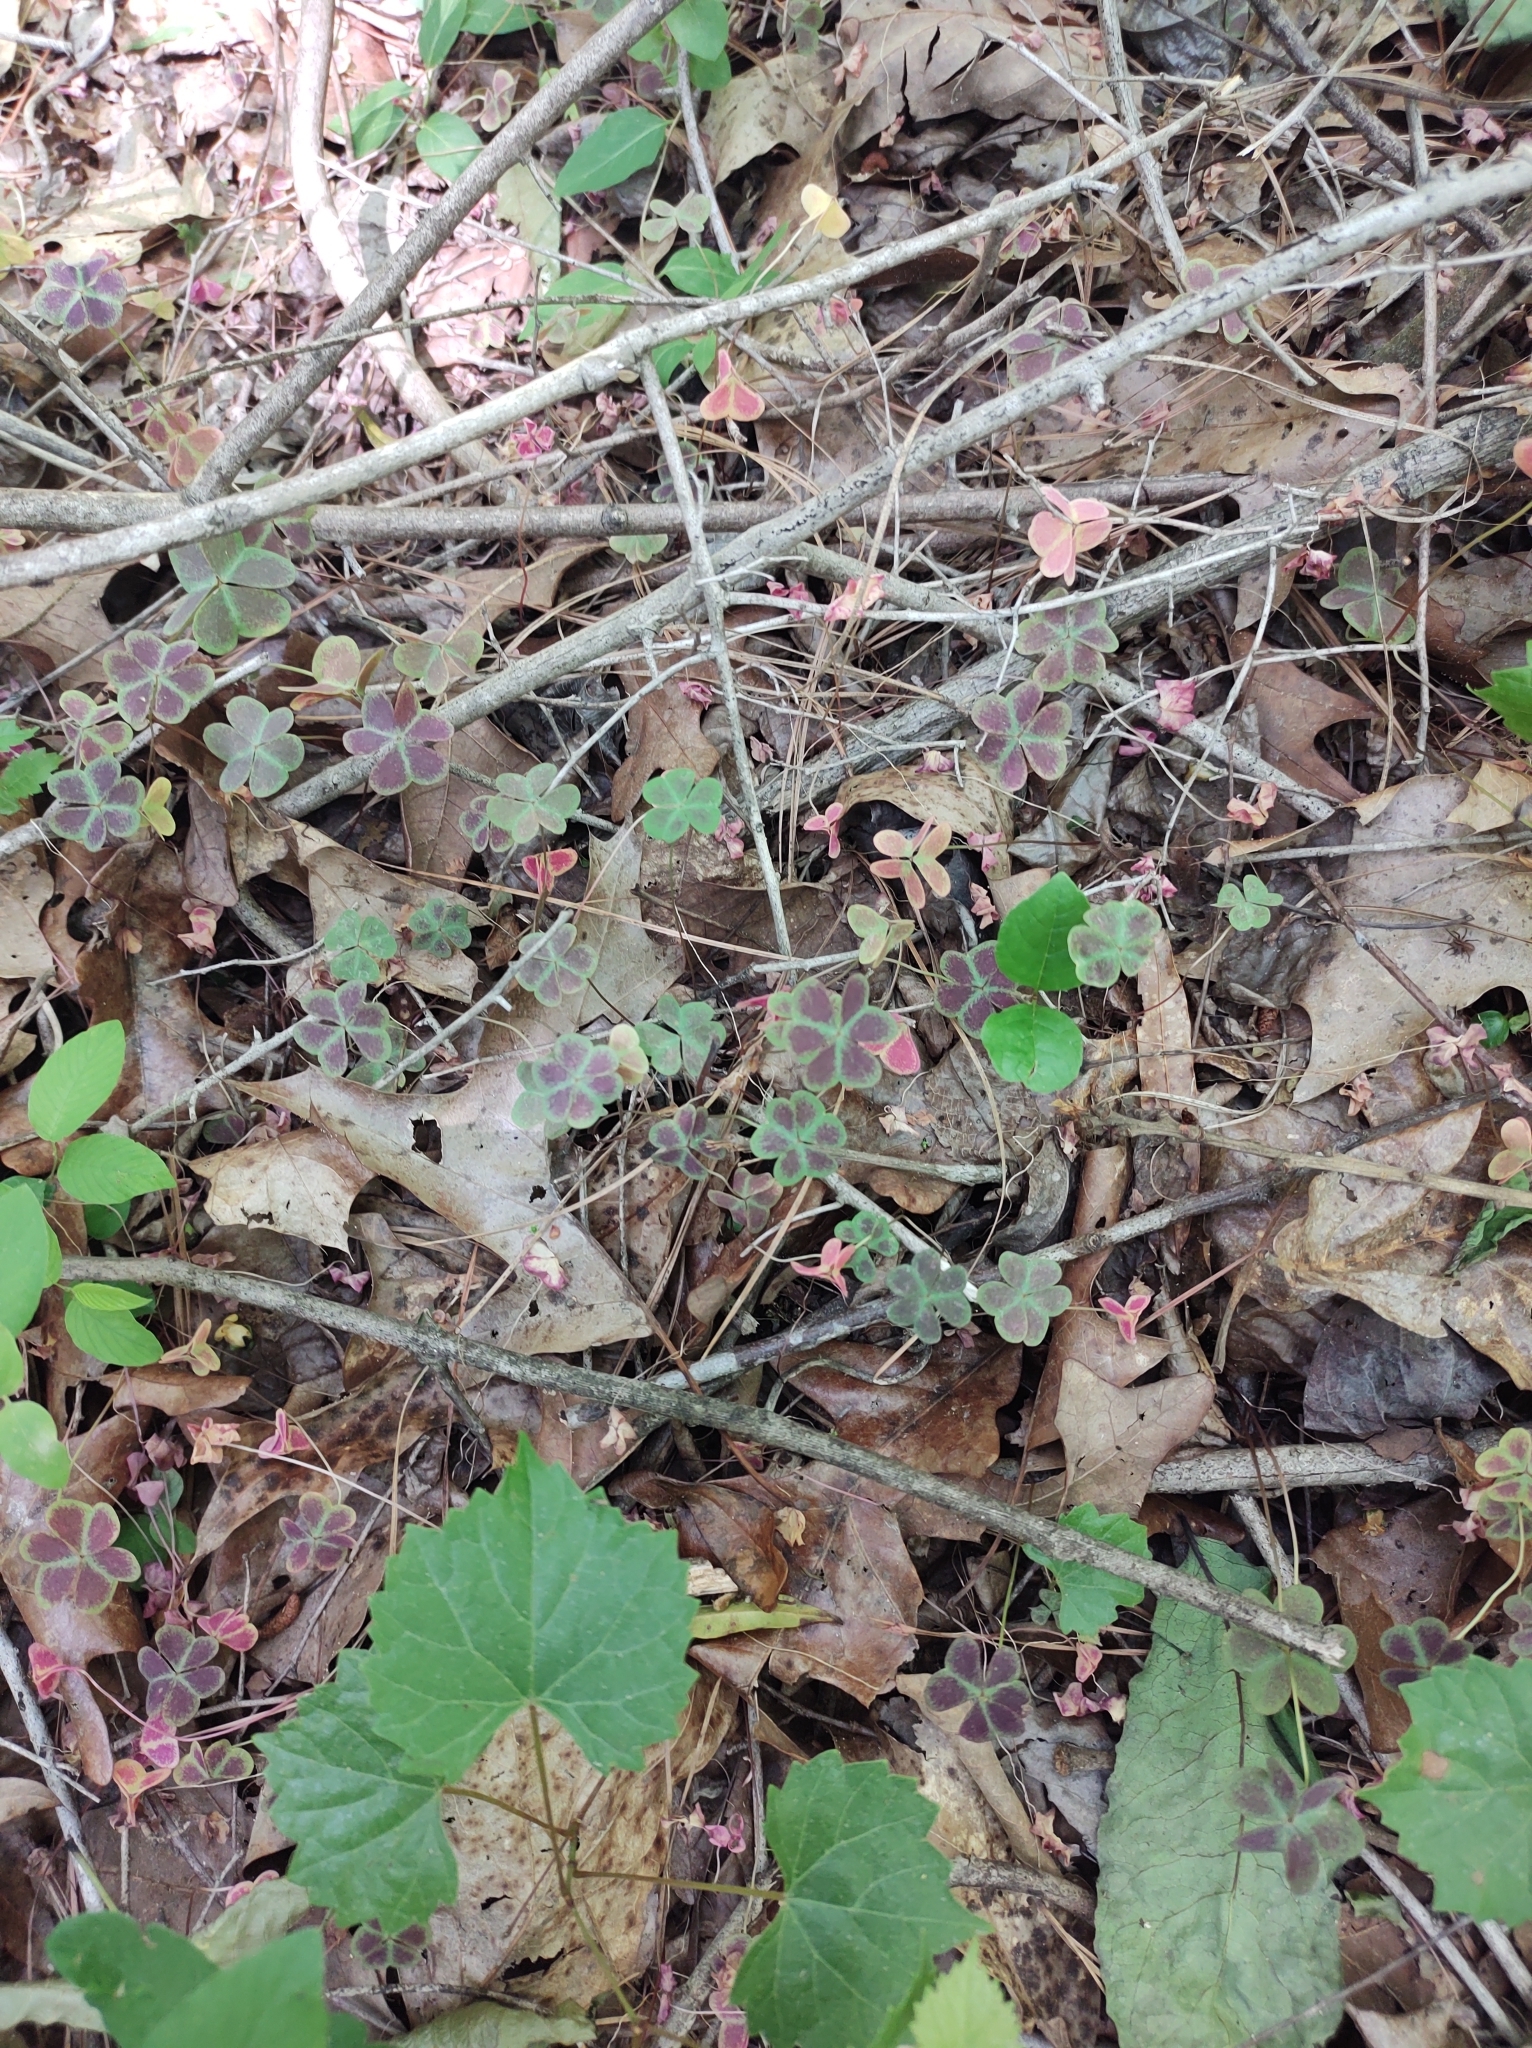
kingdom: Plantae
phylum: Tracheophyta
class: Magnoliopsida
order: Oxalidales
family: Oxalidaceae
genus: Oxalis
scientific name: Oxalis violacea
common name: Violet wood-sorrel
